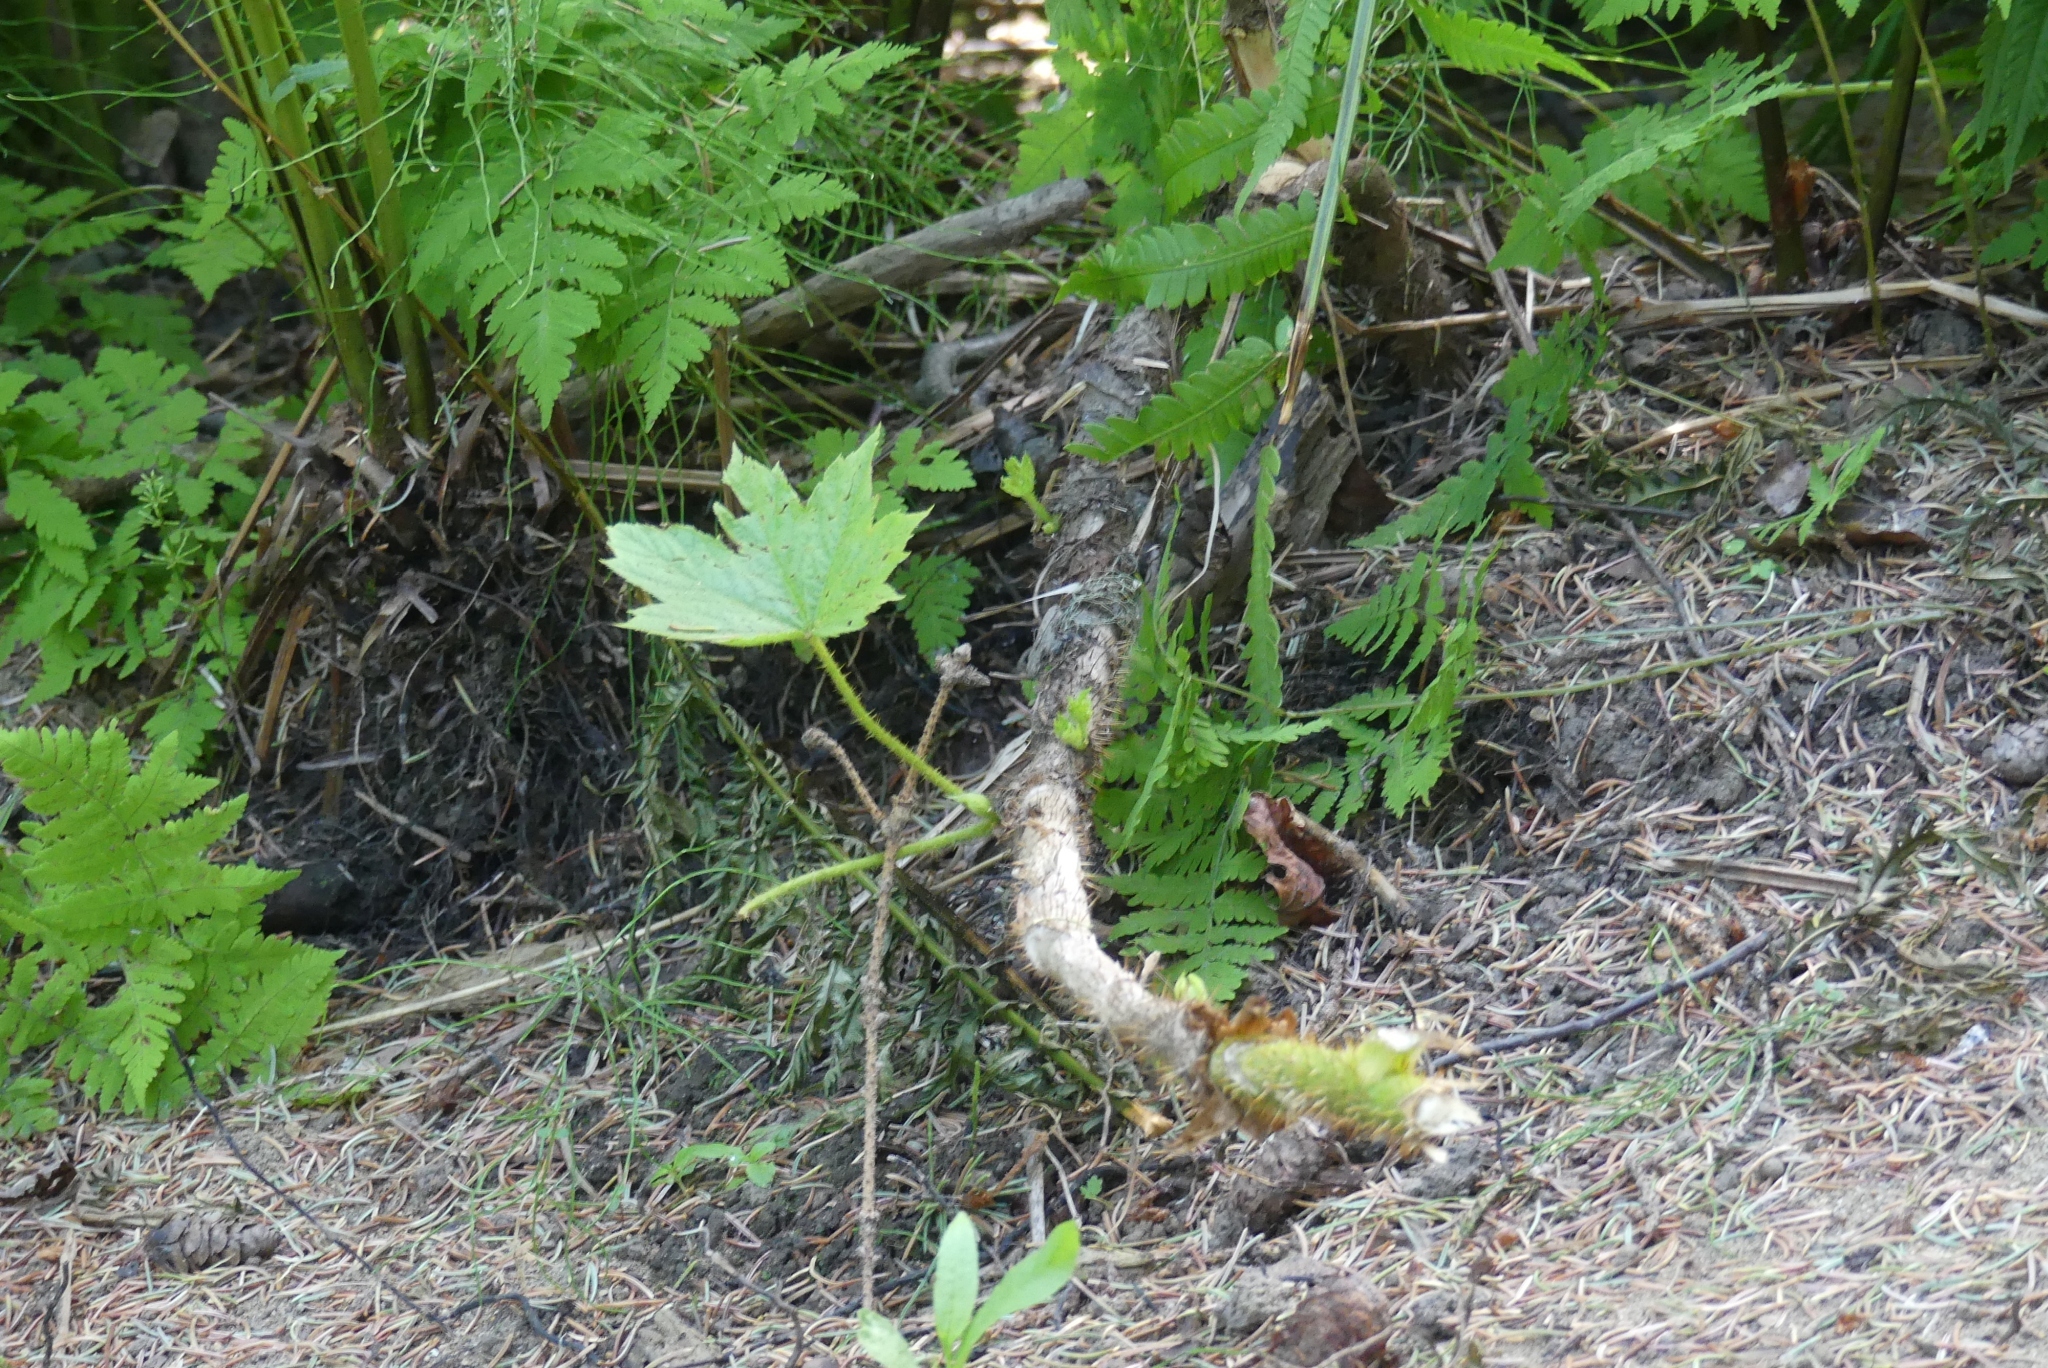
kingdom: Plantae
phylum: Tracheophyta
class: Magnoliopsida
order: Apiales
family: Araliaceae
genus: Oplopanax
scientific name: Oplopanax horridus
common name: Devil's walking-stick
